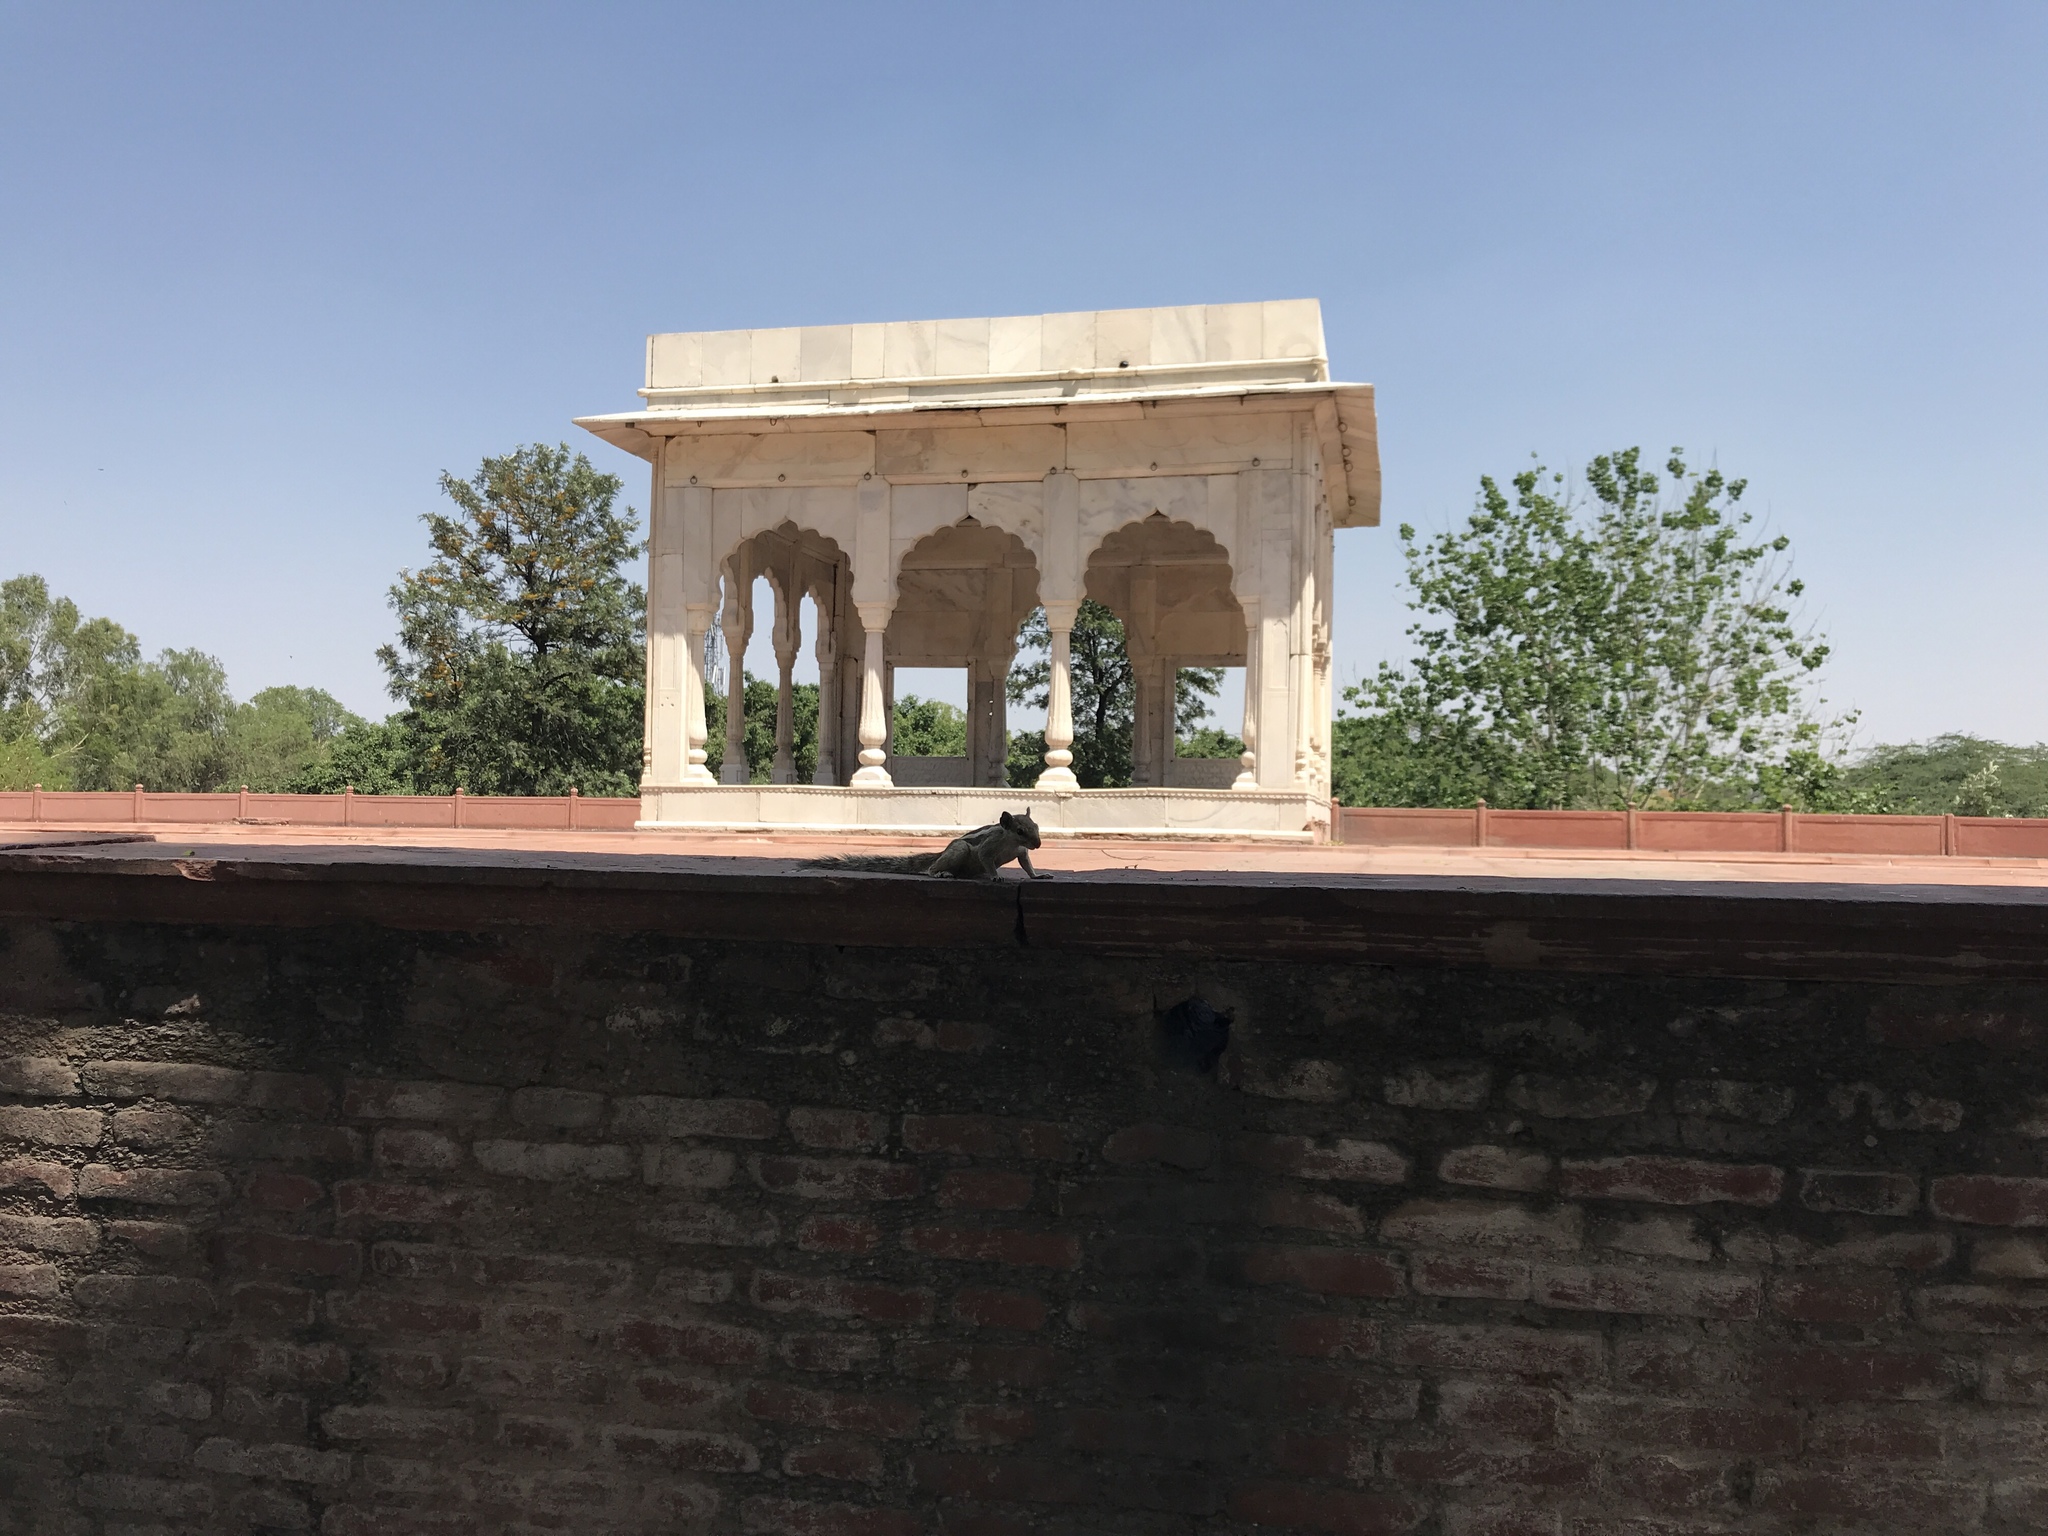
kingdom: Animalia
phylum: Chordata
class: Mammalia
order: Rodentia
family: Sciuridae
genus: Funambulus
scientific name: Funambulus pennantii
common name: Northern palm squirrel
